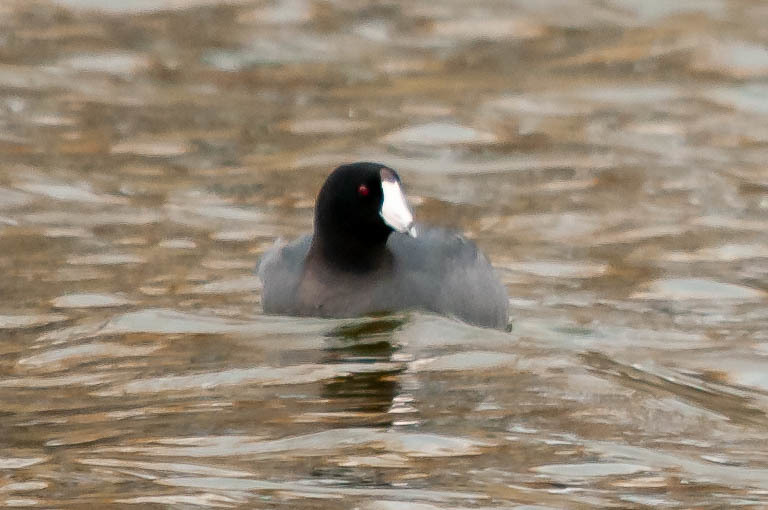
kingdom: Animalia
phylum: Chordata
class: Aves
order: Gruiformes
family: Rallidae
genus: Fulica
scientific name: Fulica americana
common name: American coot
